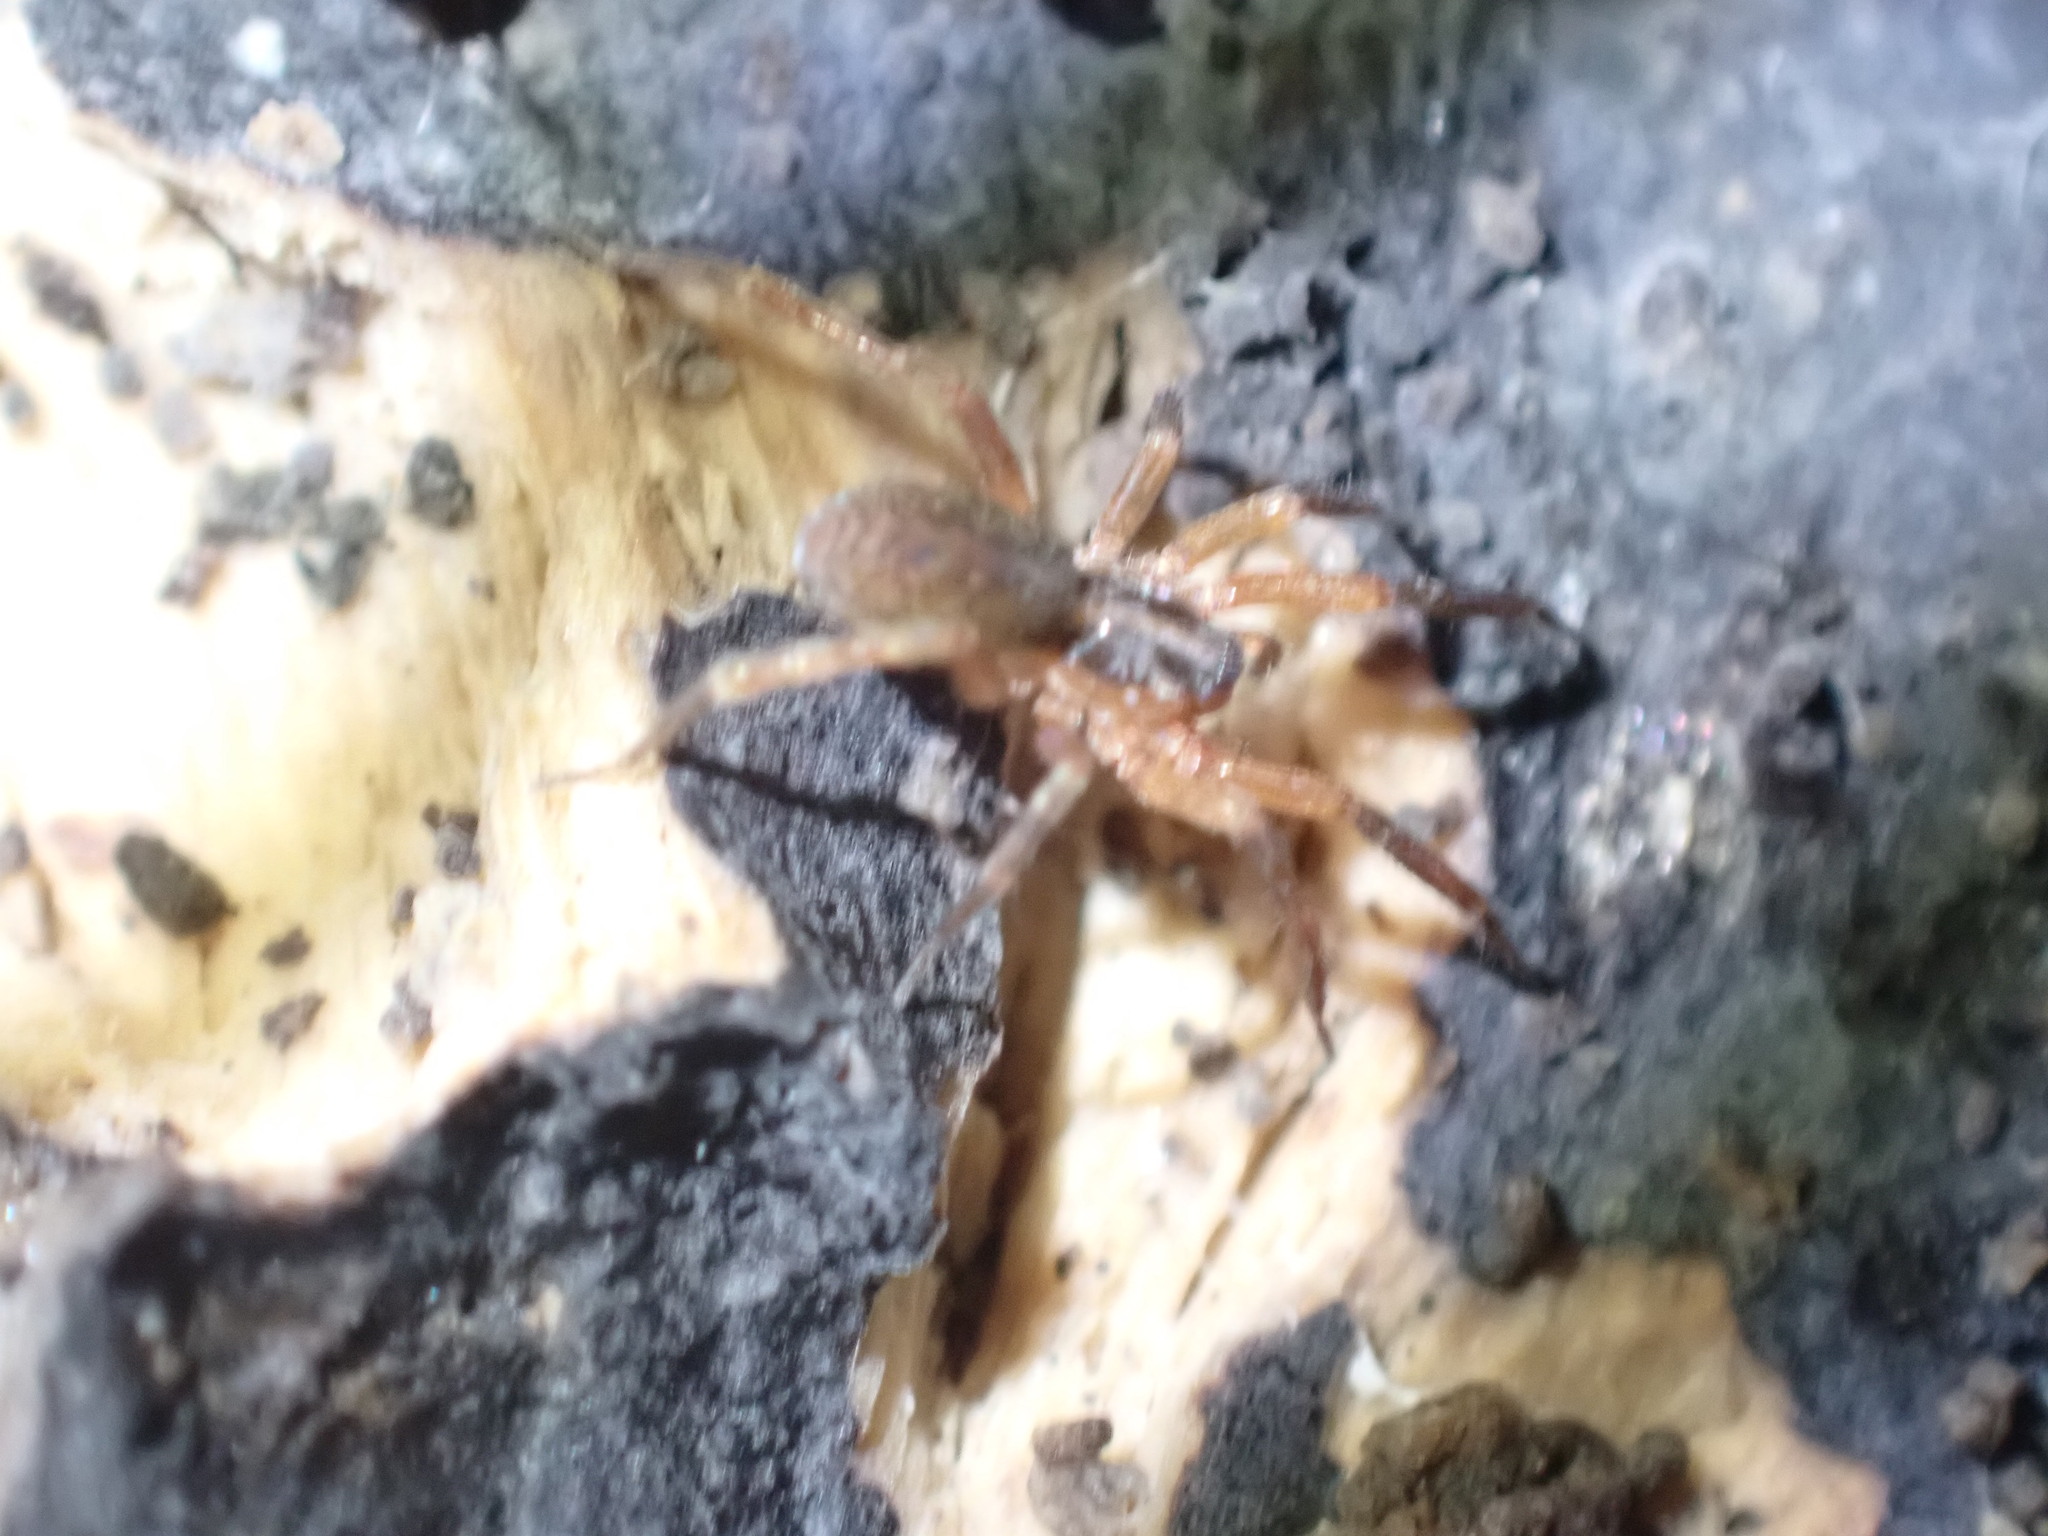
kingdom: Animalia
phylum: Arthropoda
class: Arachnida
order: Araneae
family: Liocranidae
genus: Scotina
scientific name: Scotina celans
